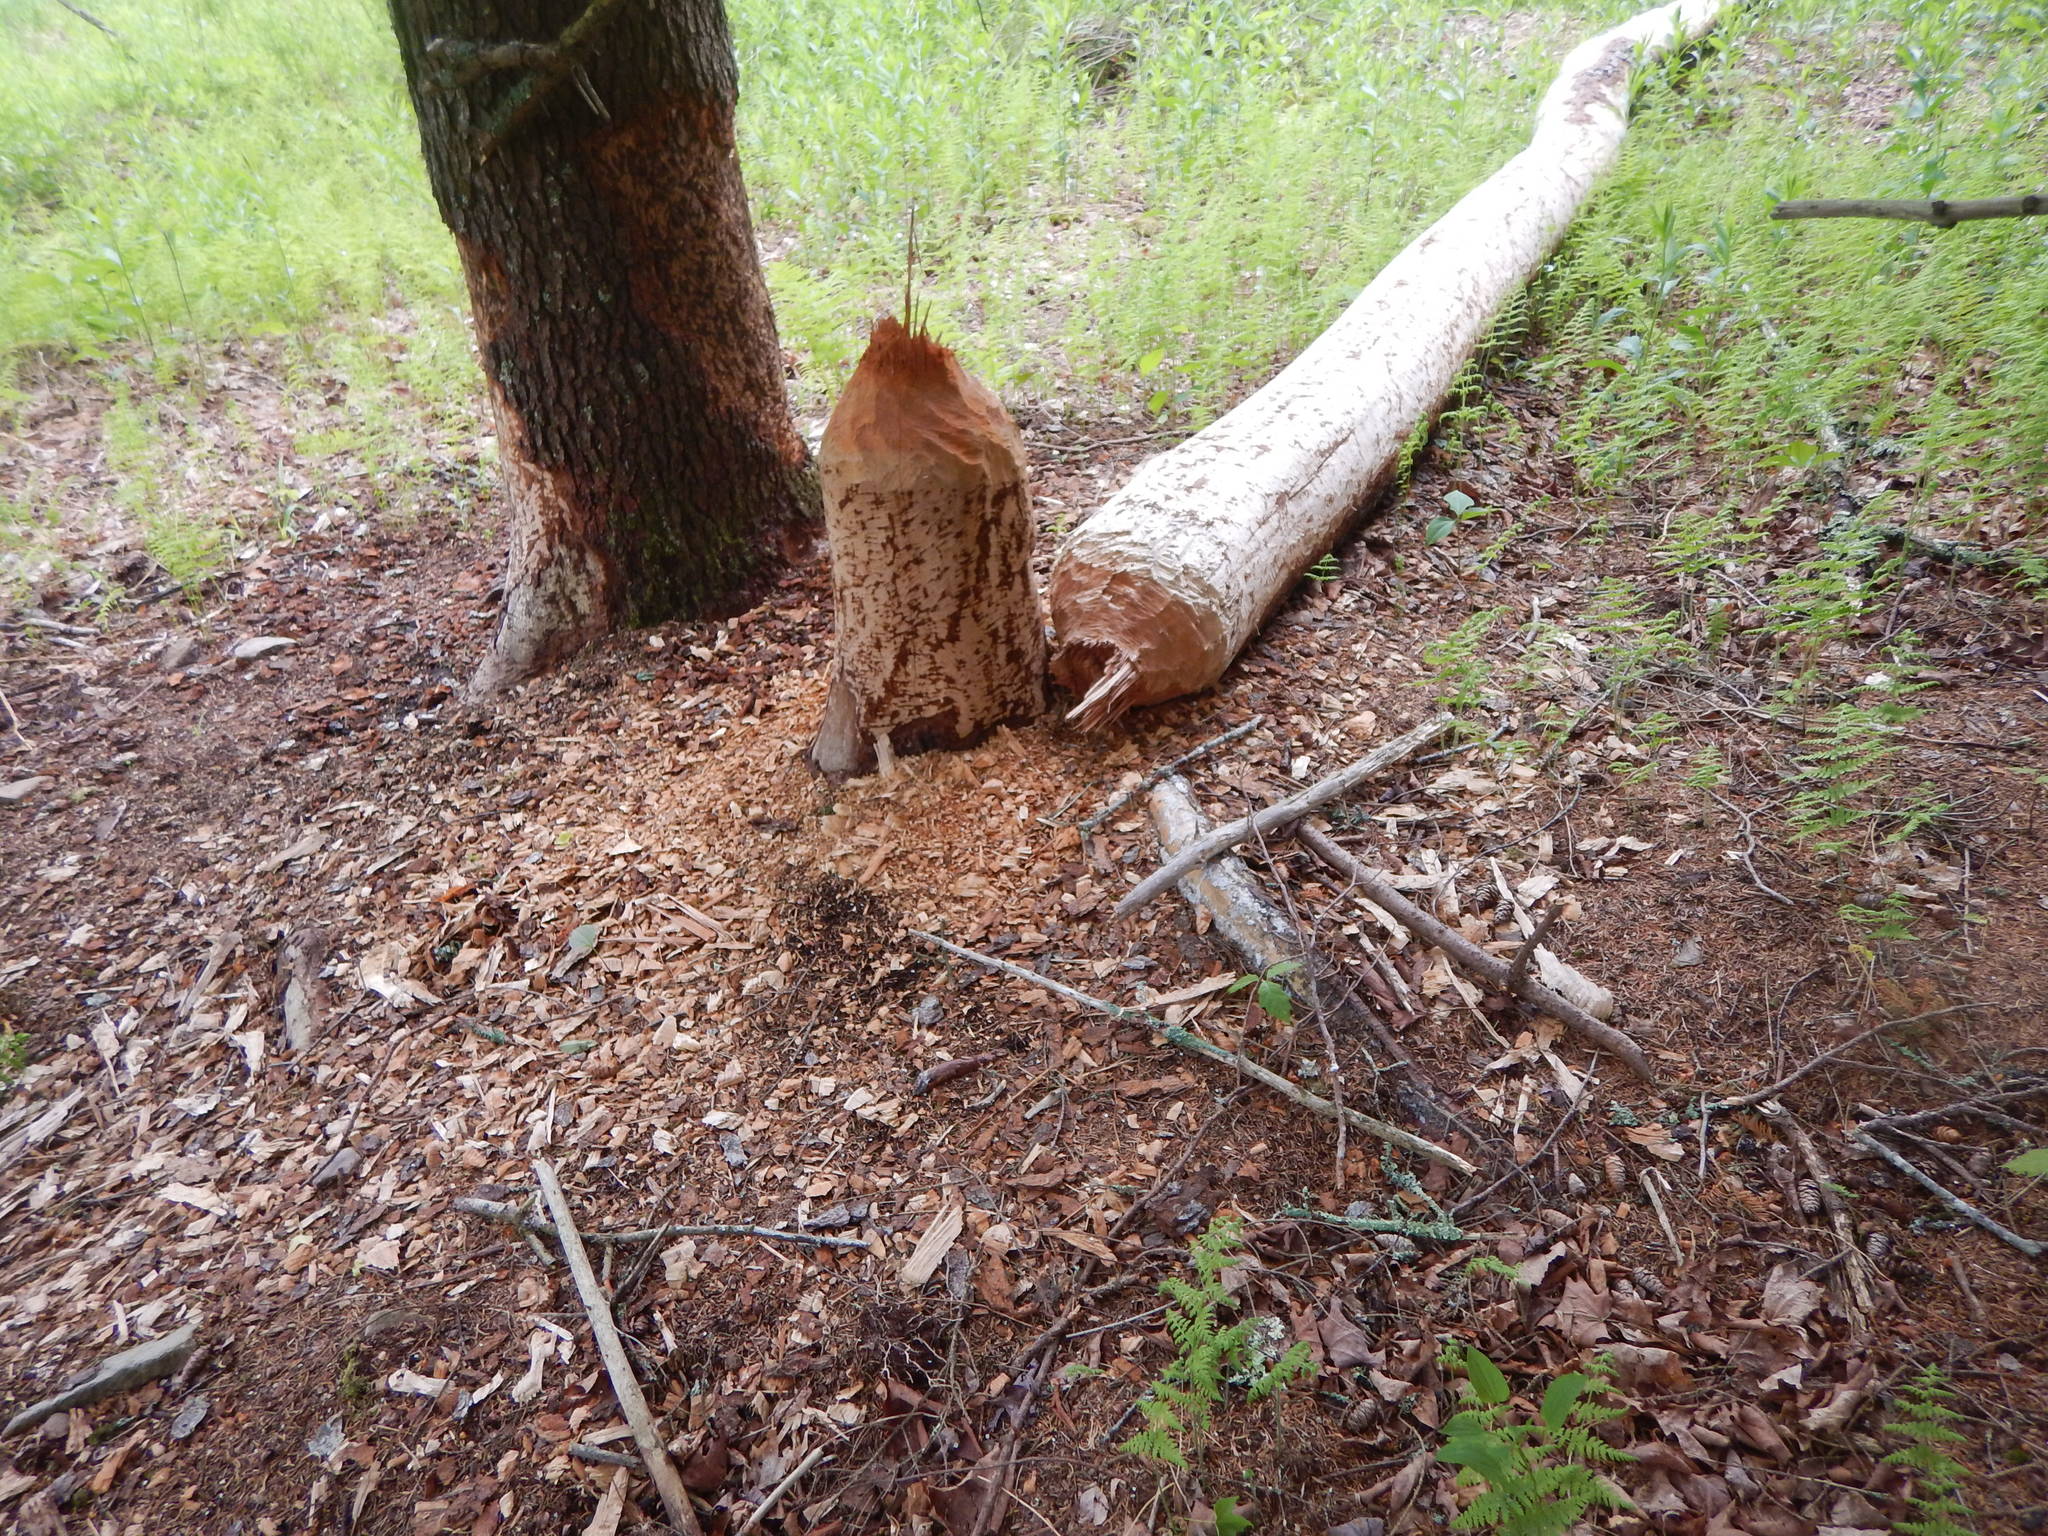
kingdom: Animalia
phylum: Chordata
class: Mammalia
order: Rodentia
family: Castoridae
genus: Castor
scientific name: Castor canadensis
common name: American beaver
